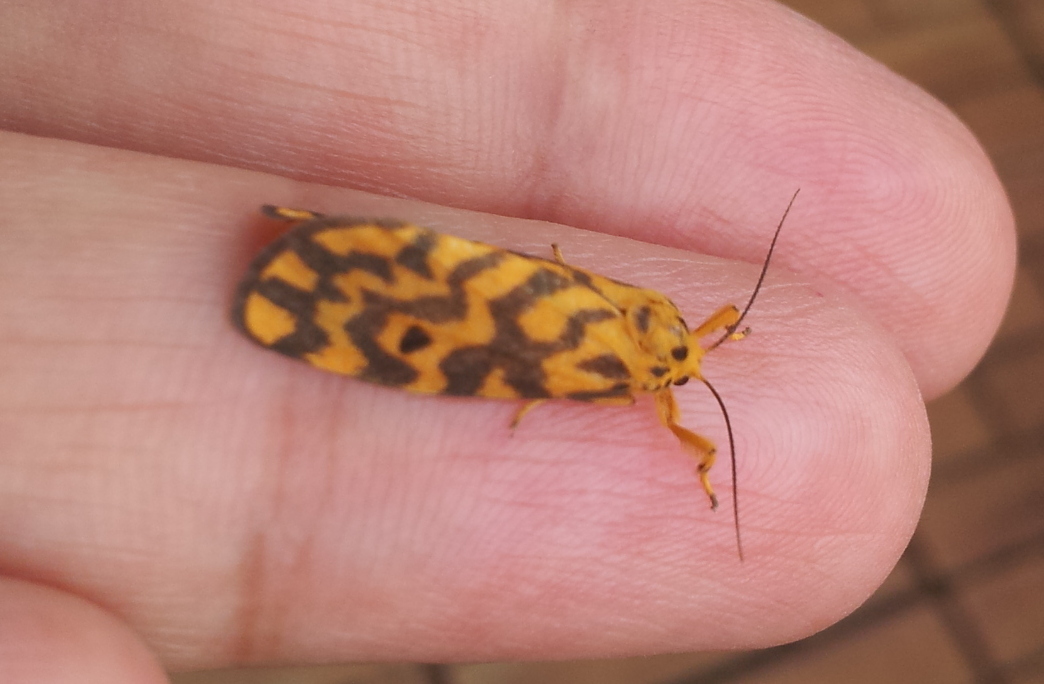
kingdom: Animalia
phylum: Arthropoda
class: Insecta
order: Lepidoptera
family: Erebidae
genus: Nepita
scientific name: Nepita conferta
